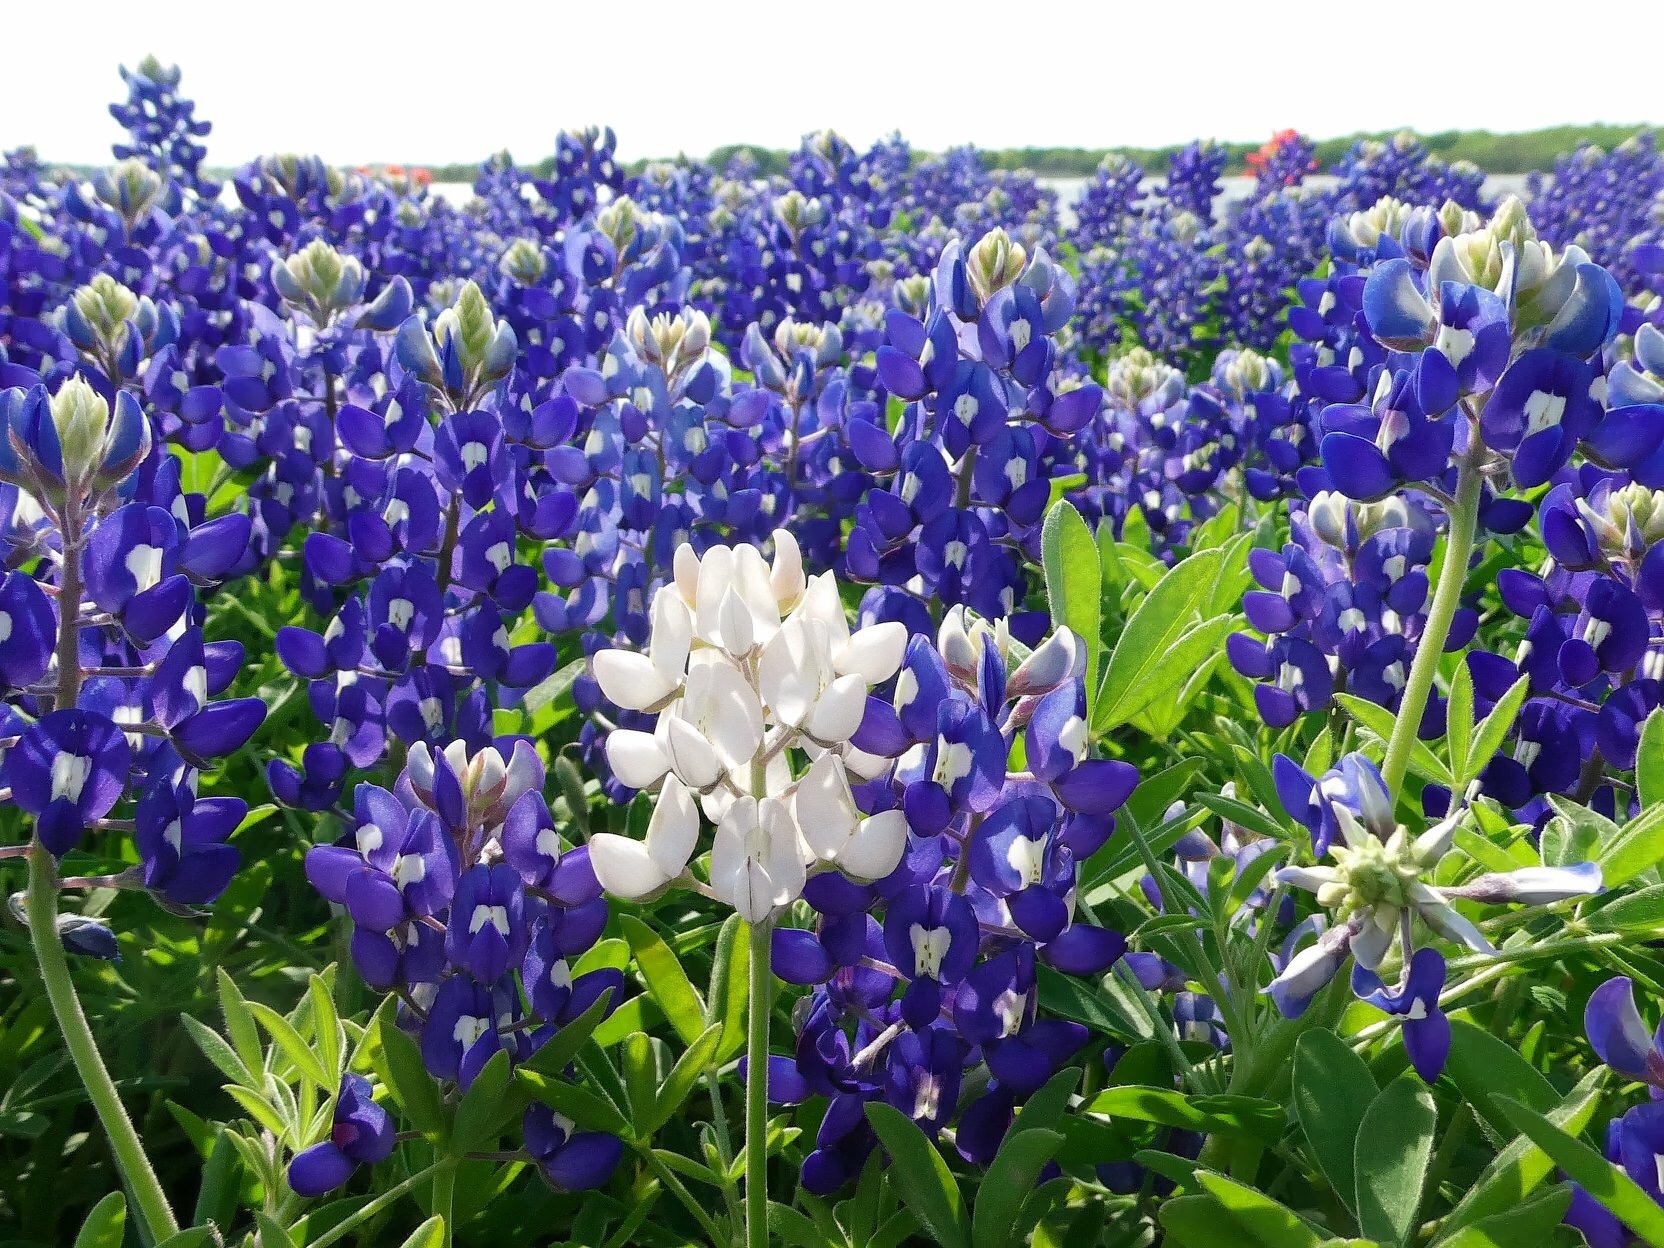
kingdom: Plantae
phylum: Tracheophyta
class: Magnoliopsida
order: Fabales
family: Fabaceae
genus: Lupinus
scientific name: Lupinus texensis
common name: Texas bluebonnet
